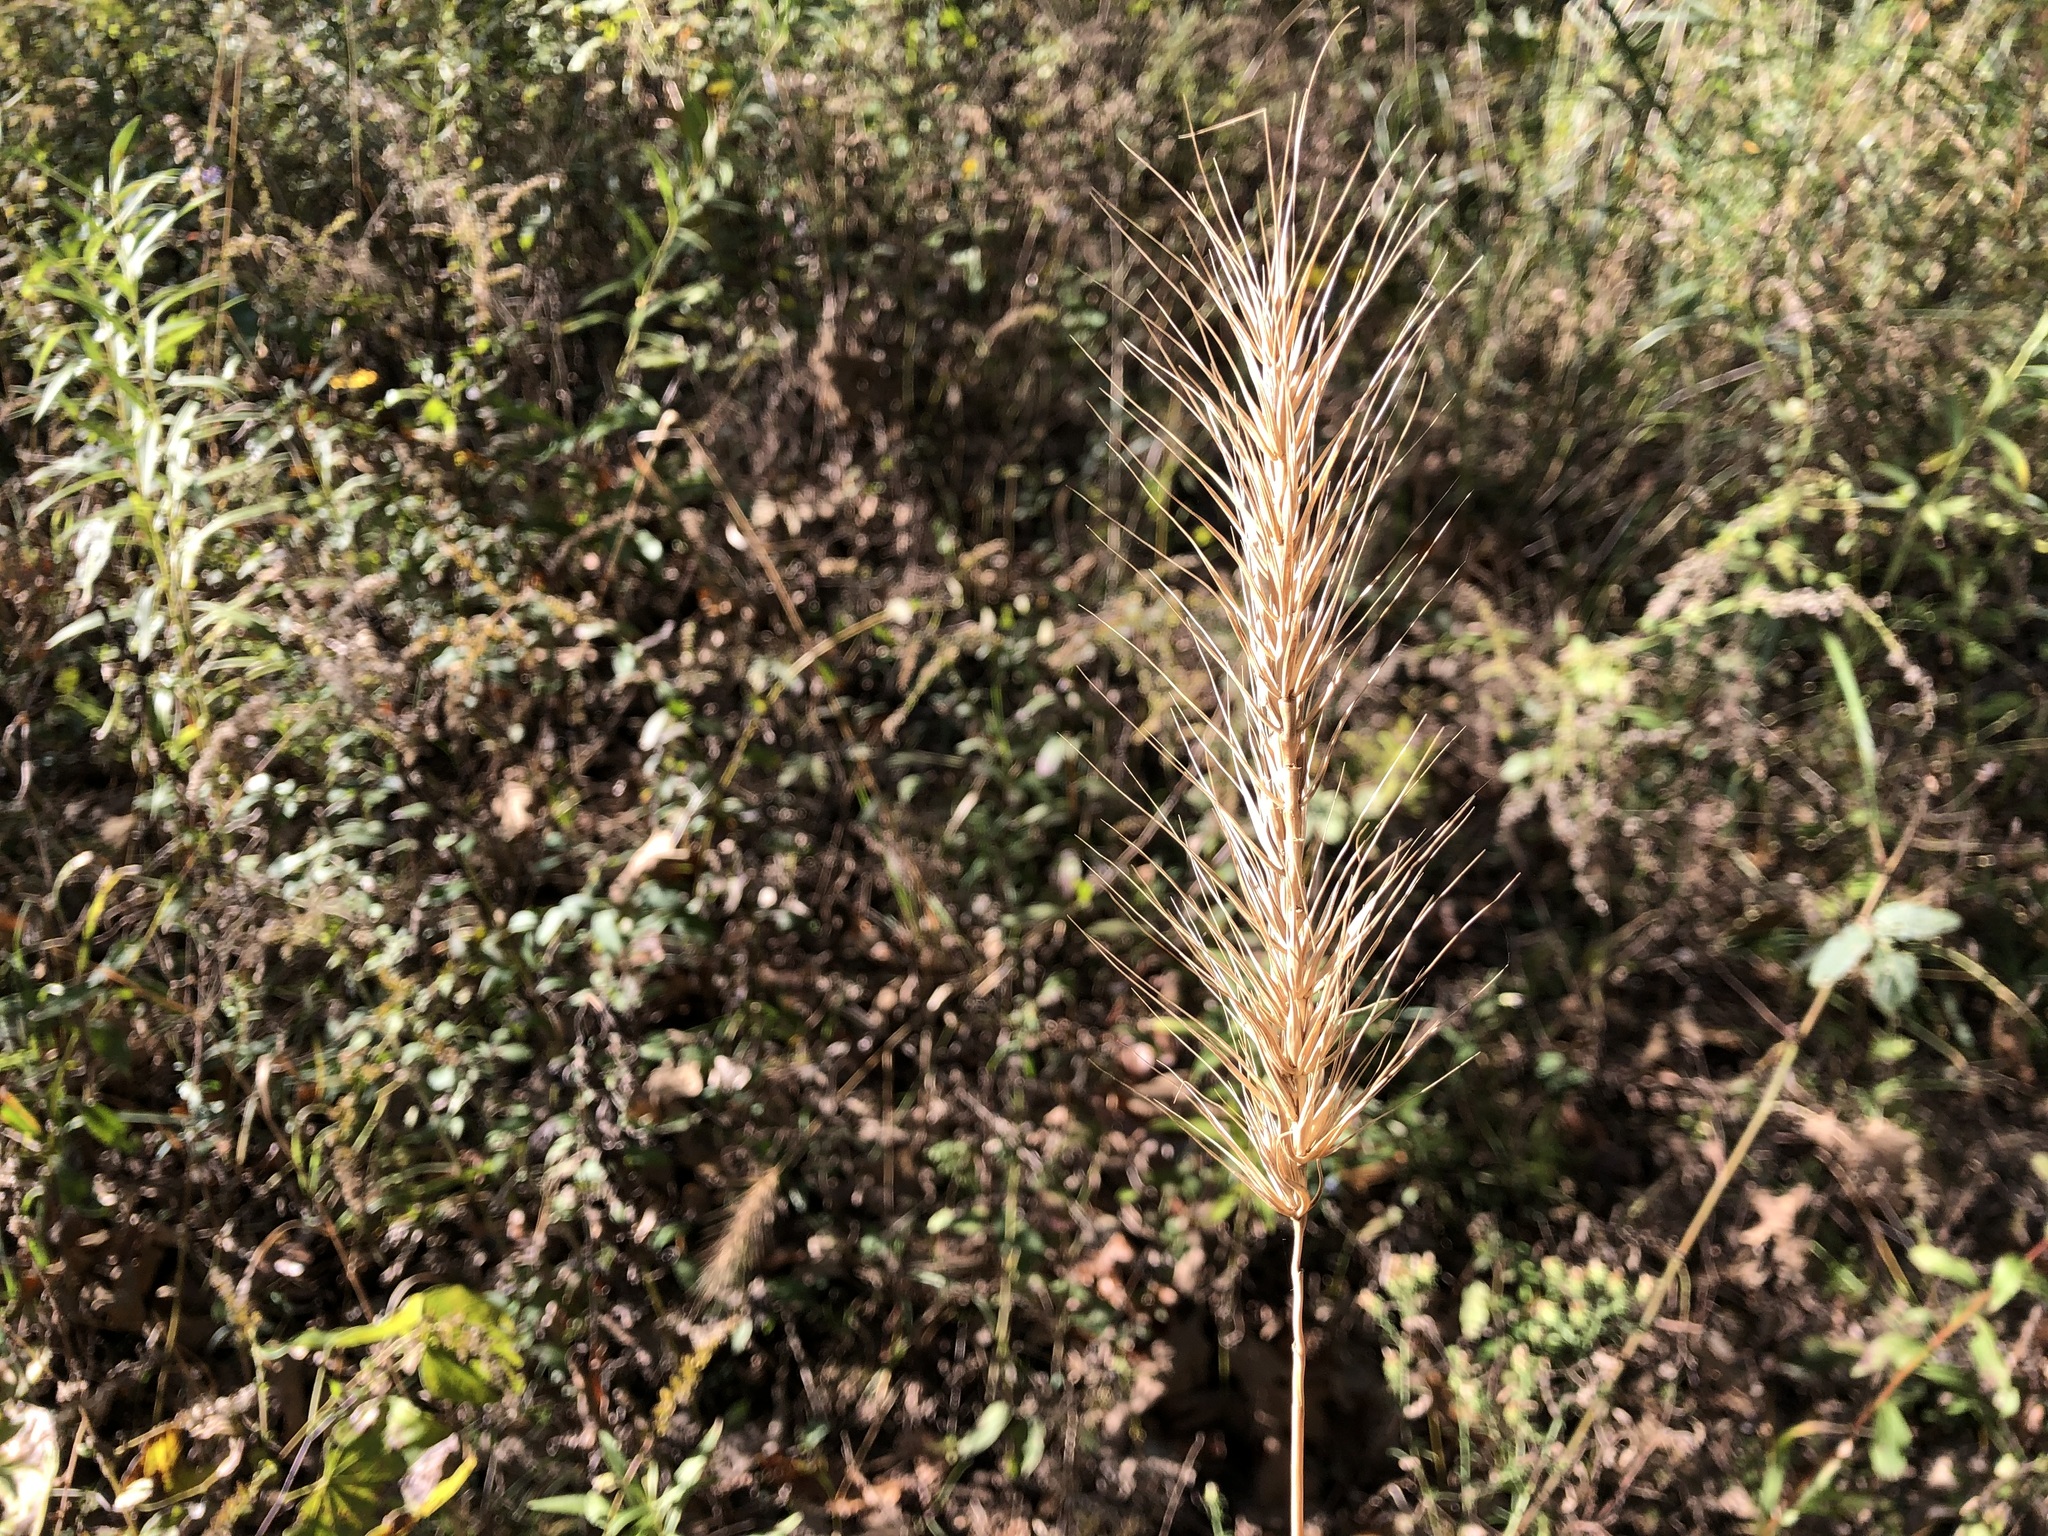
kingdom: Plantae
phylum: Tracheophyta
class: Liliopsida
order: Poales
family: Poaceae
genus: Elymus
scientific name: Elymus virginicus
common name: Common eastern wildrye
